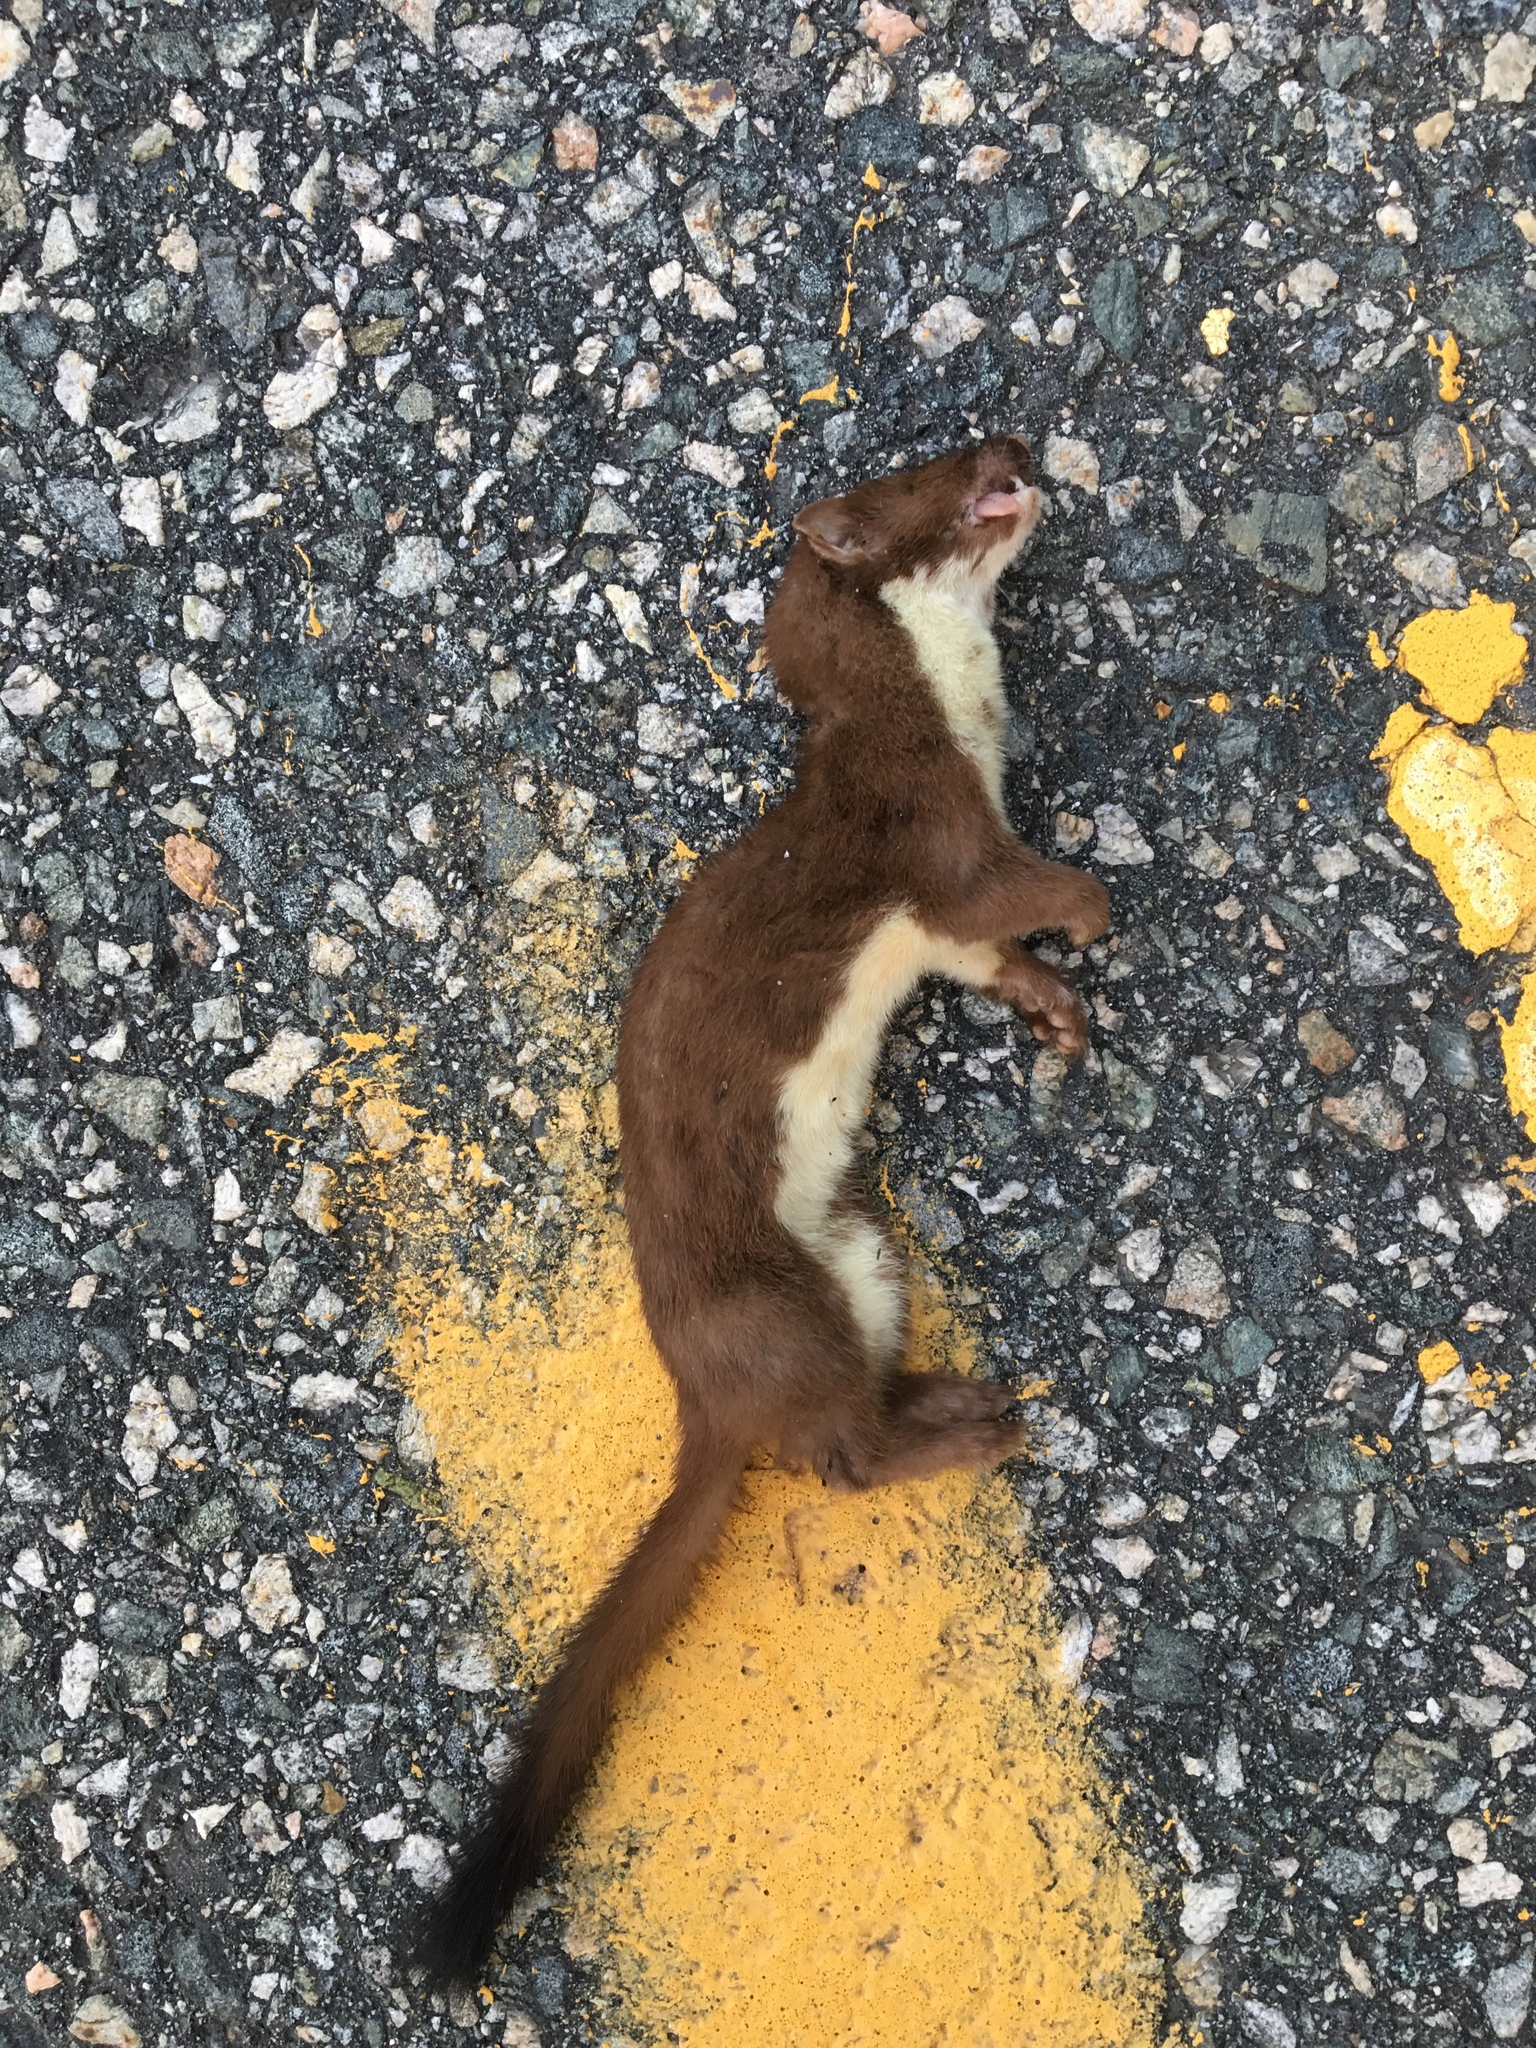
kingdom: Animalia
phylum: Chordata
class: Mammalia
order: Carnivora
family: Mustelidae
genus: Mustela
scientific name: Mustela
